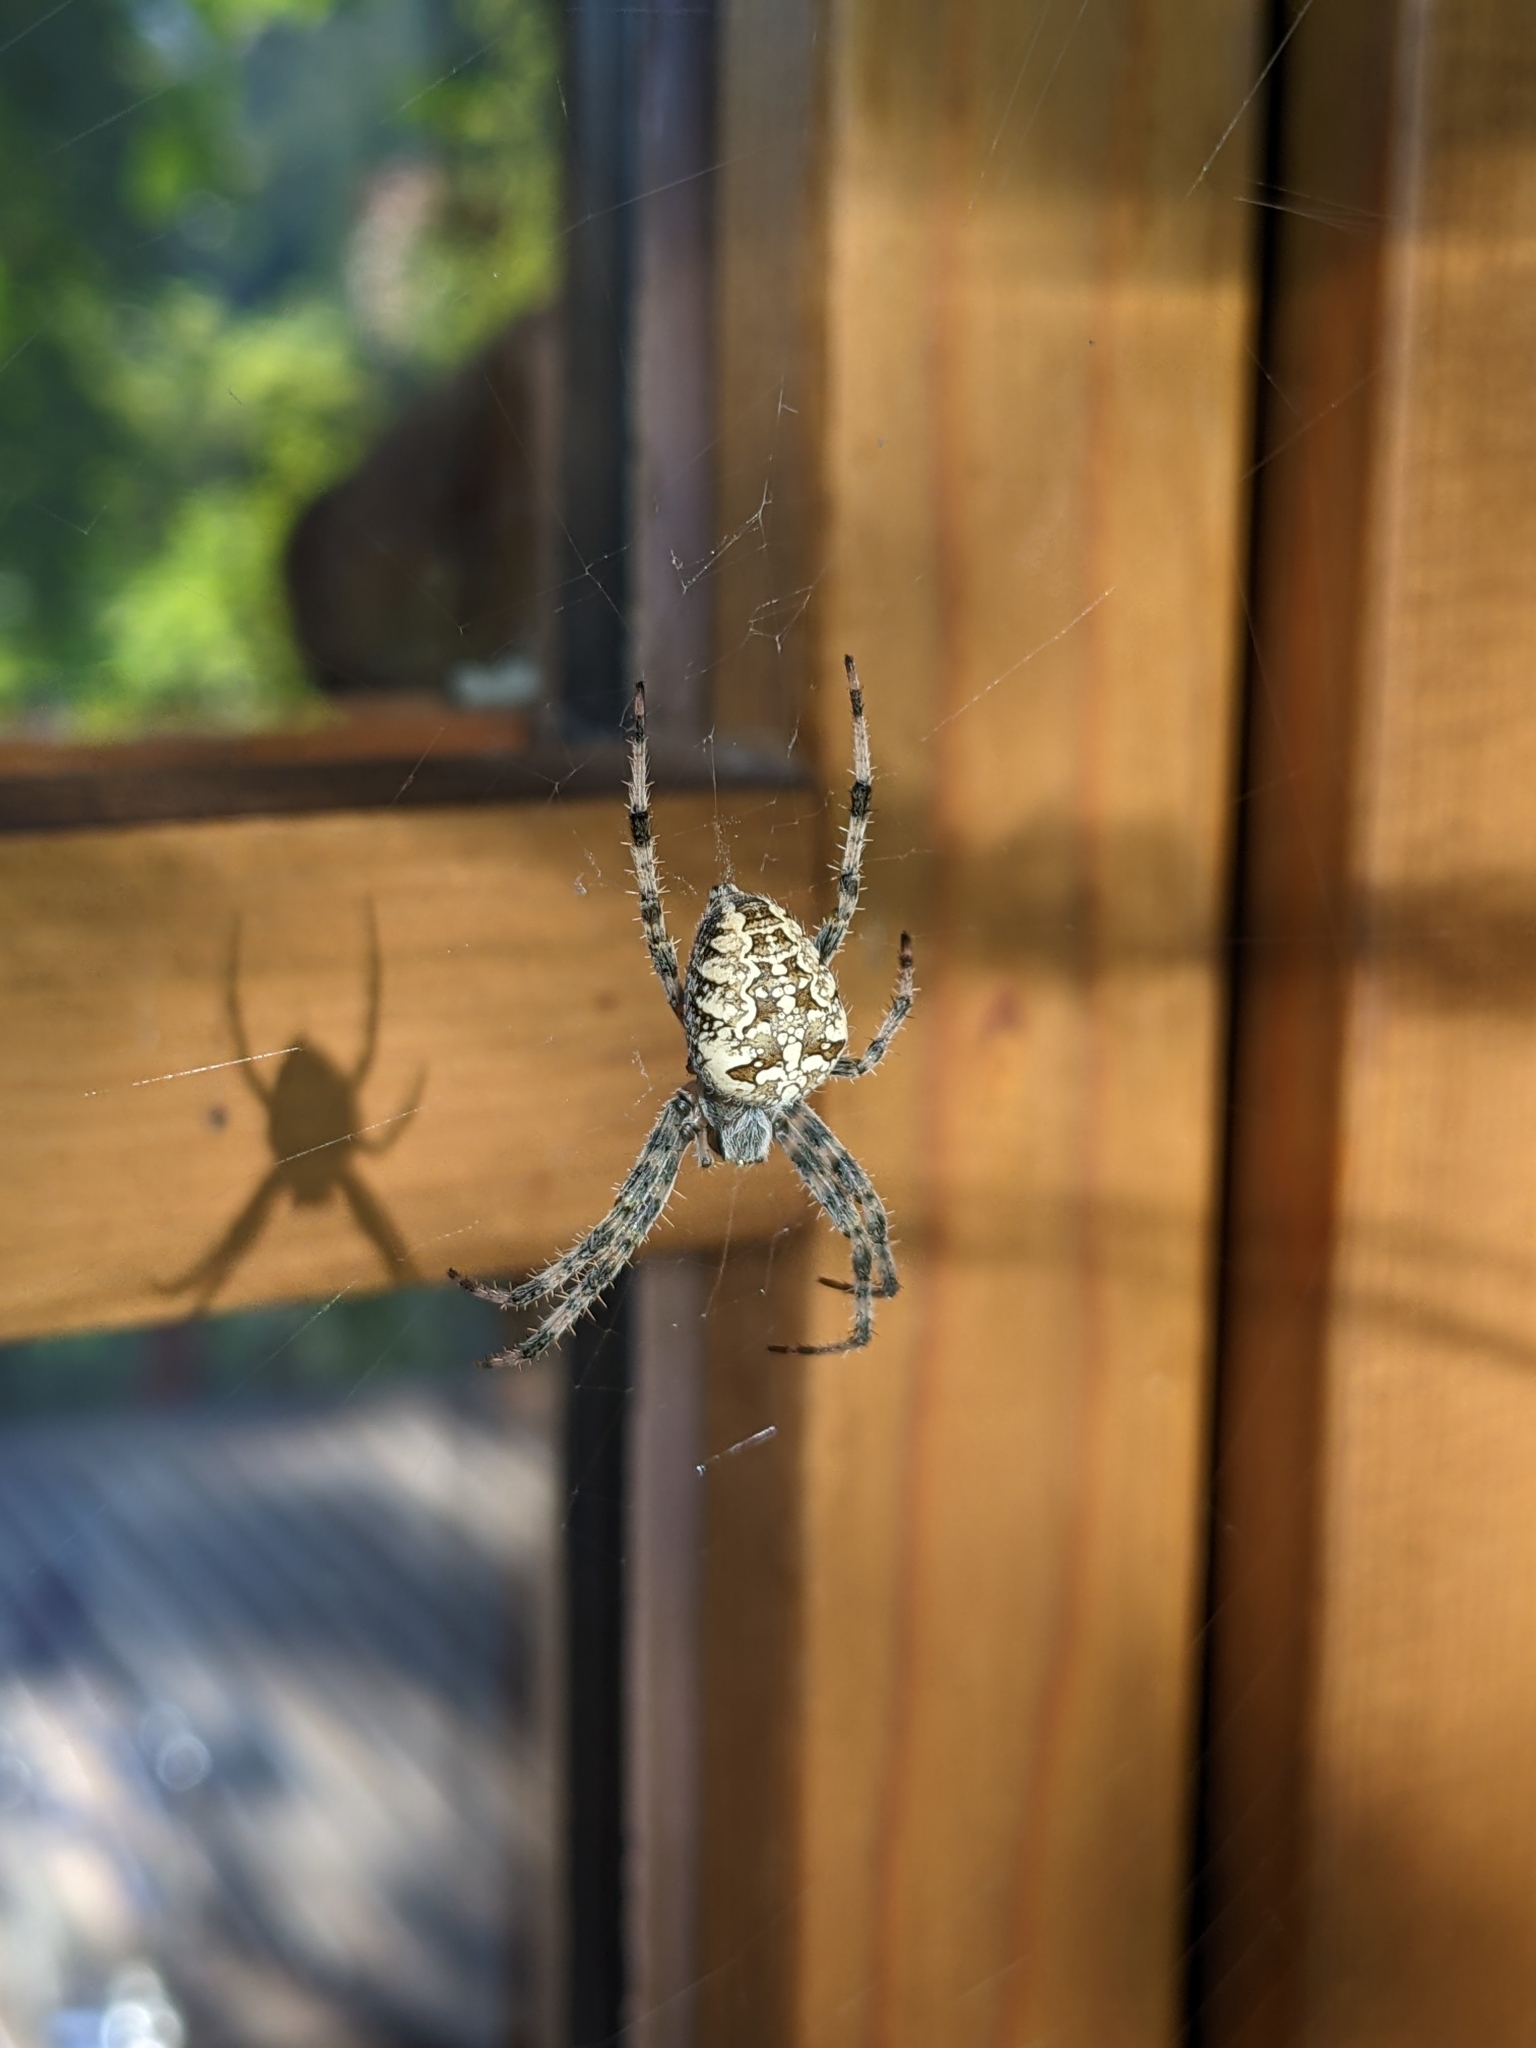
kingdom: Animalia
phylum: Arthropoda
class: Arachnida
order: Araneae
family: Araneidae
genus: Araneus
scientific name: Araneus diadematus
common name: Cross orbweaver
